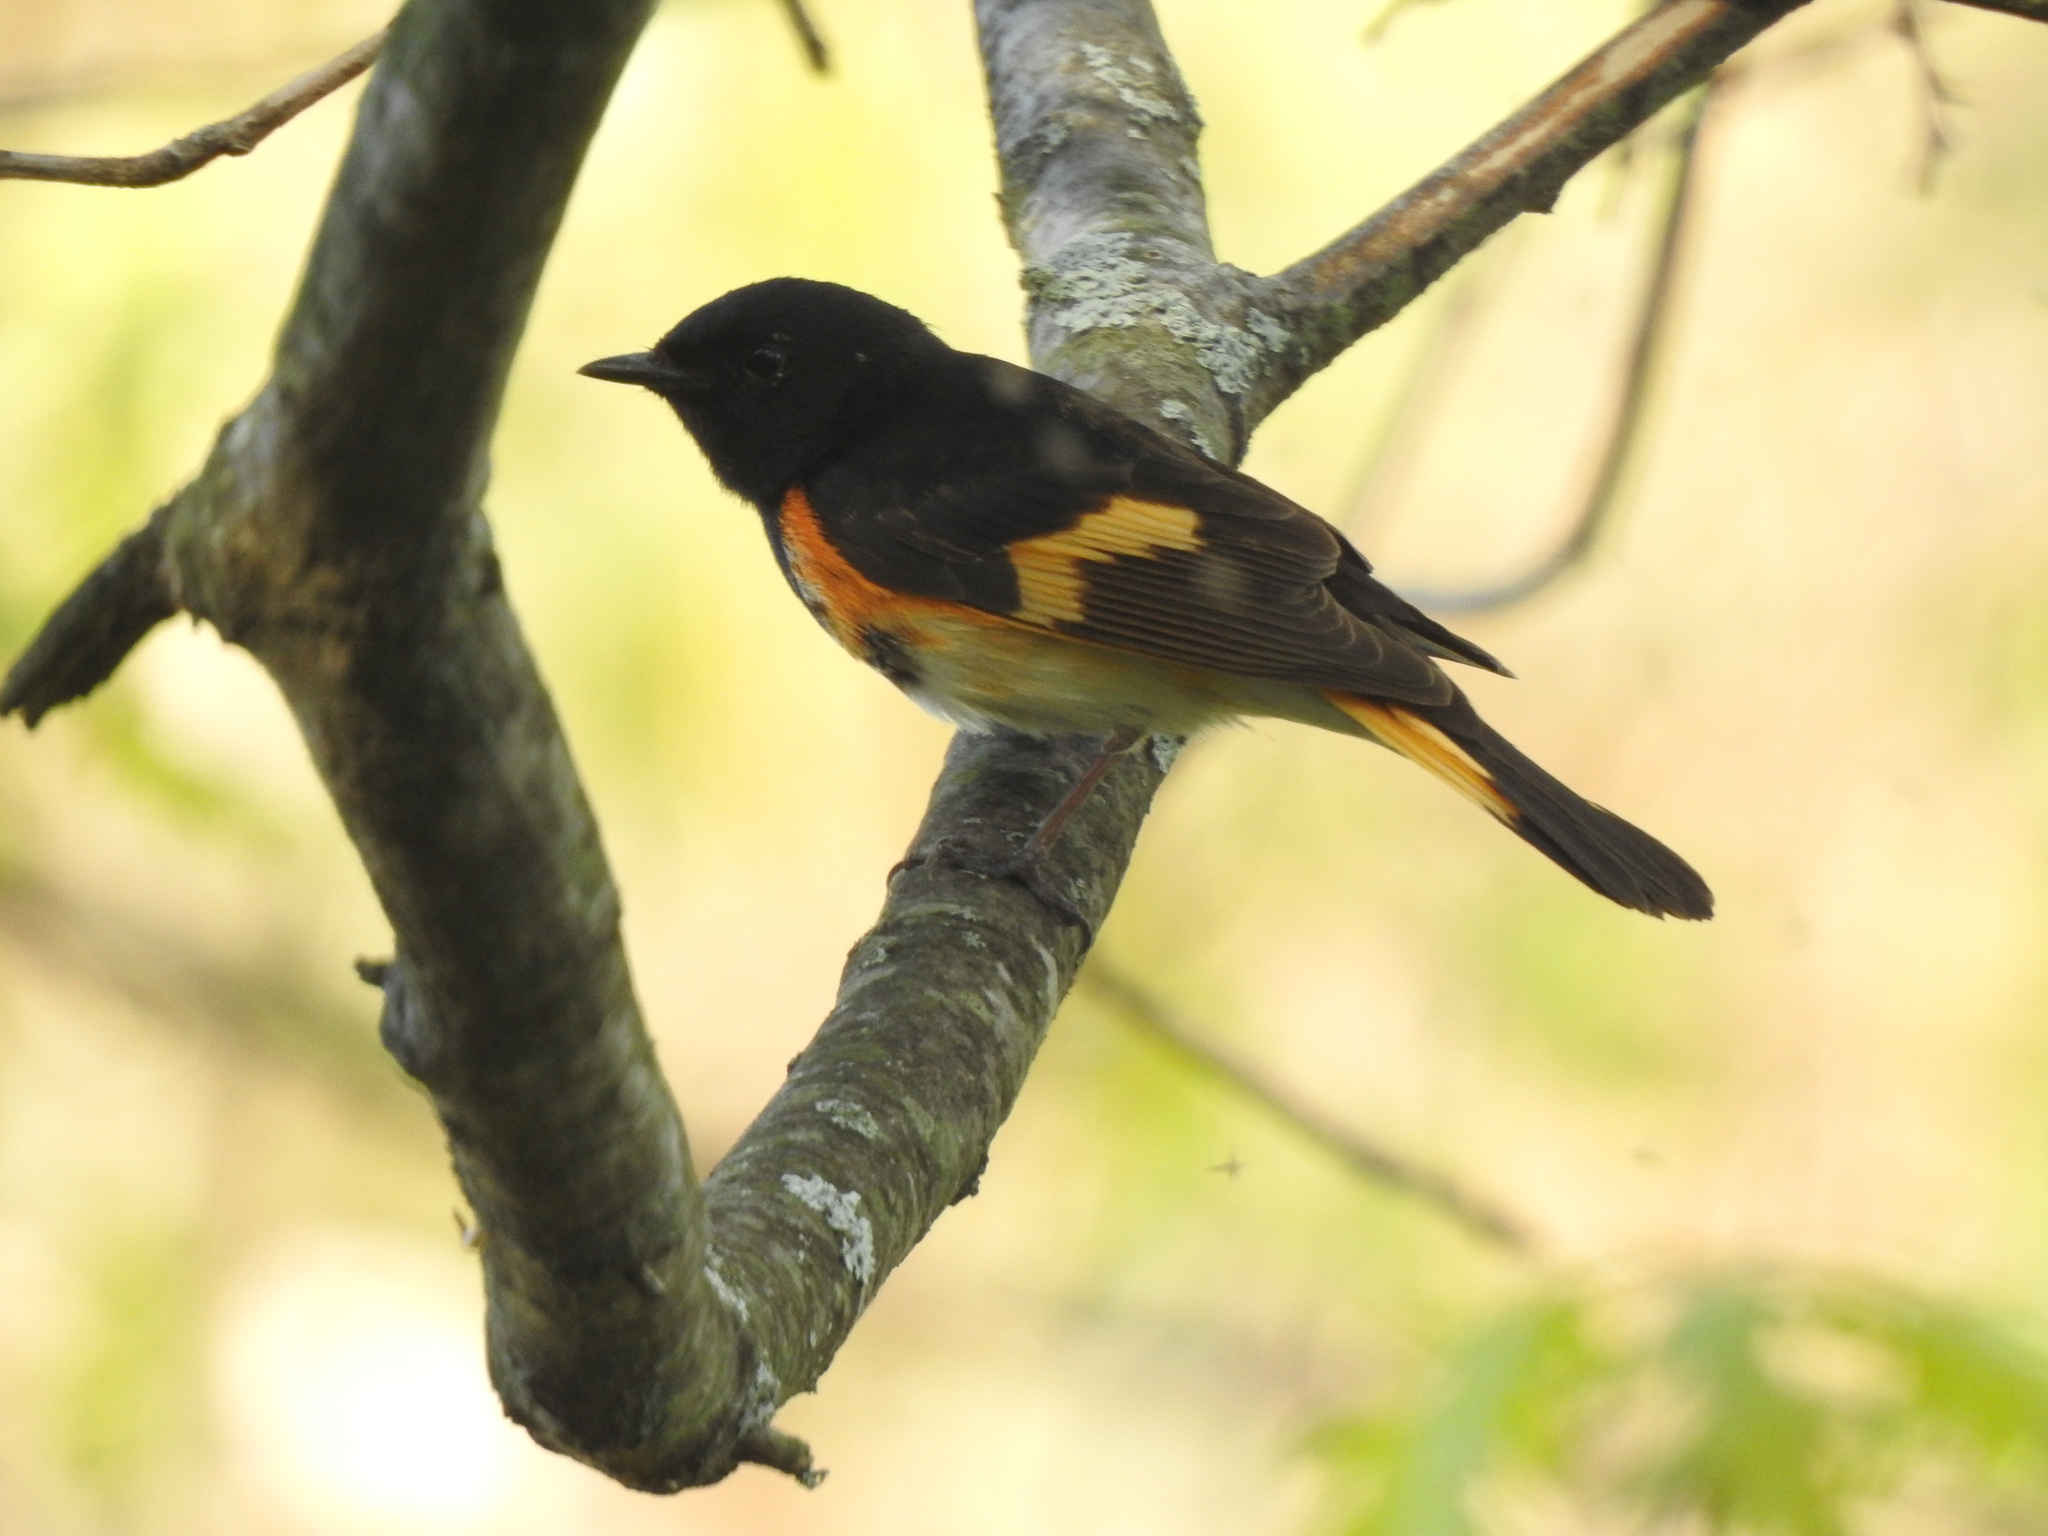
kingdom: Animalia
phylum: Chordata
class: Aves
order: Passeriformes
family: Parulidae
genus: Setophaga
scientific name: Setophaga ruticilla
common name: American redstart
